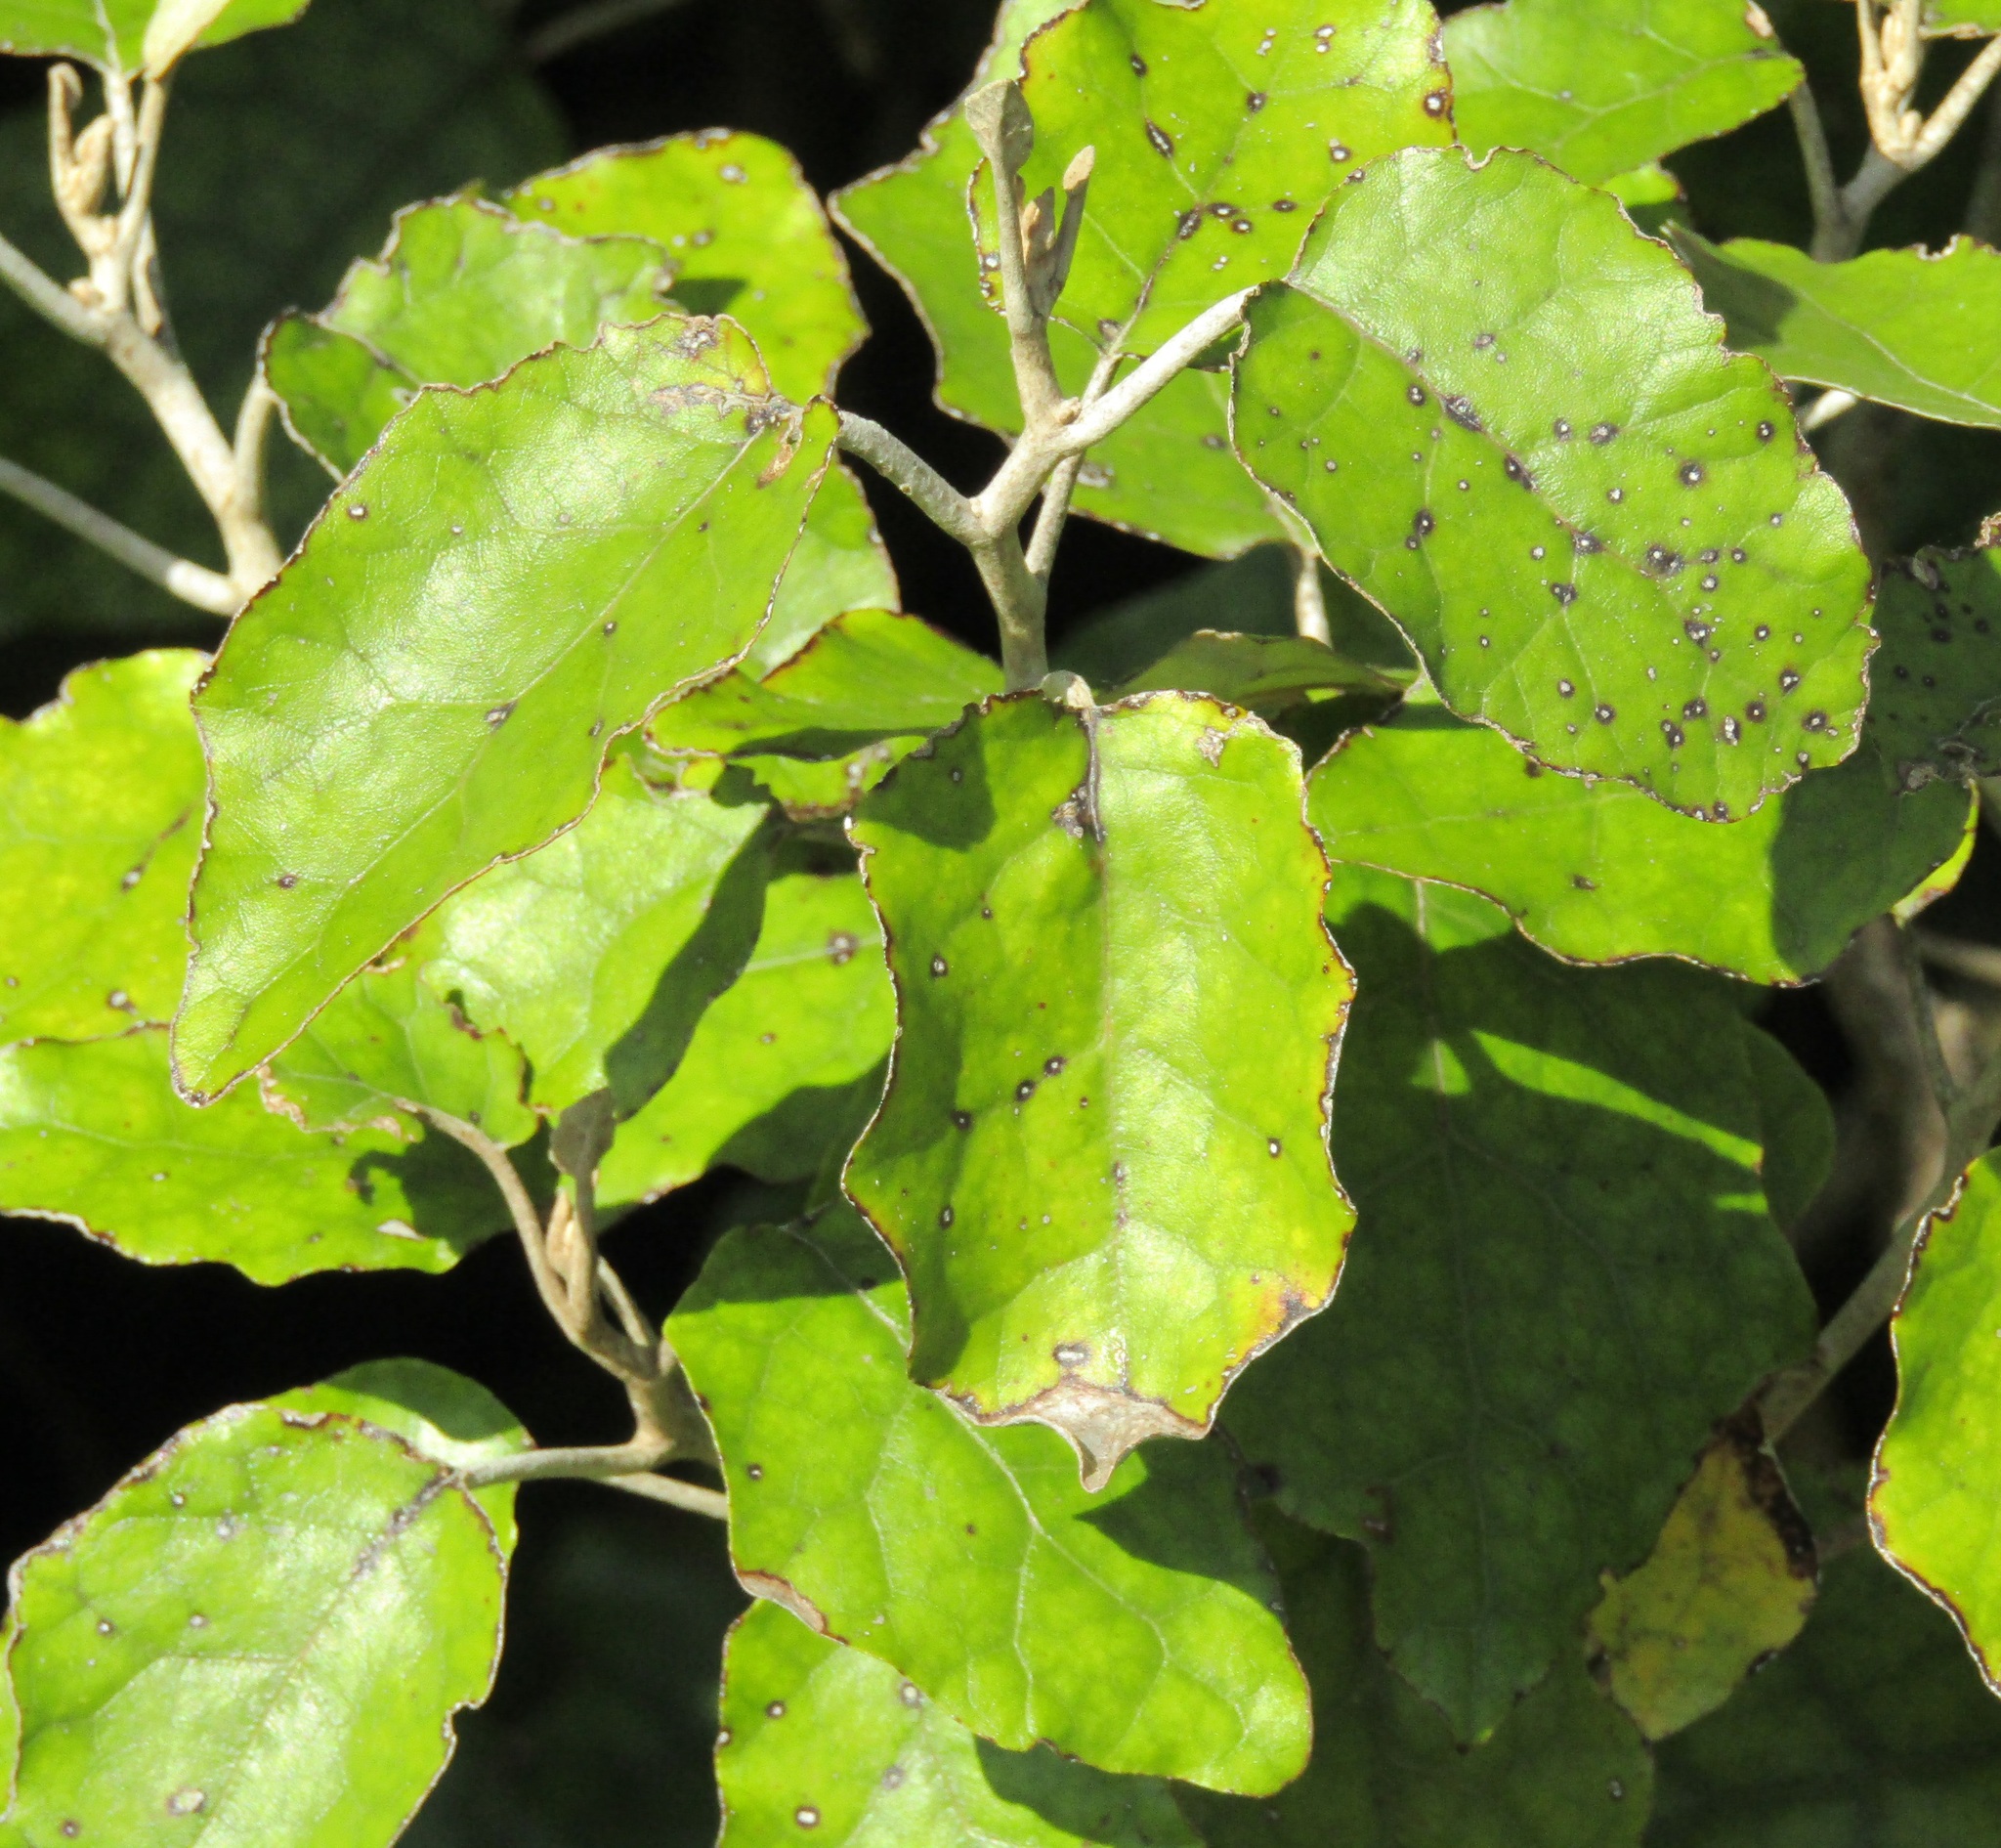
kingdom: Plantae
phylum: Tracheophyta
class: Magnoliopsida
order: Asterales
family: Asteraceae
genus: Brachyglottis
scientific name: Brachyglottis repanda
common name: Hedge ragwort
